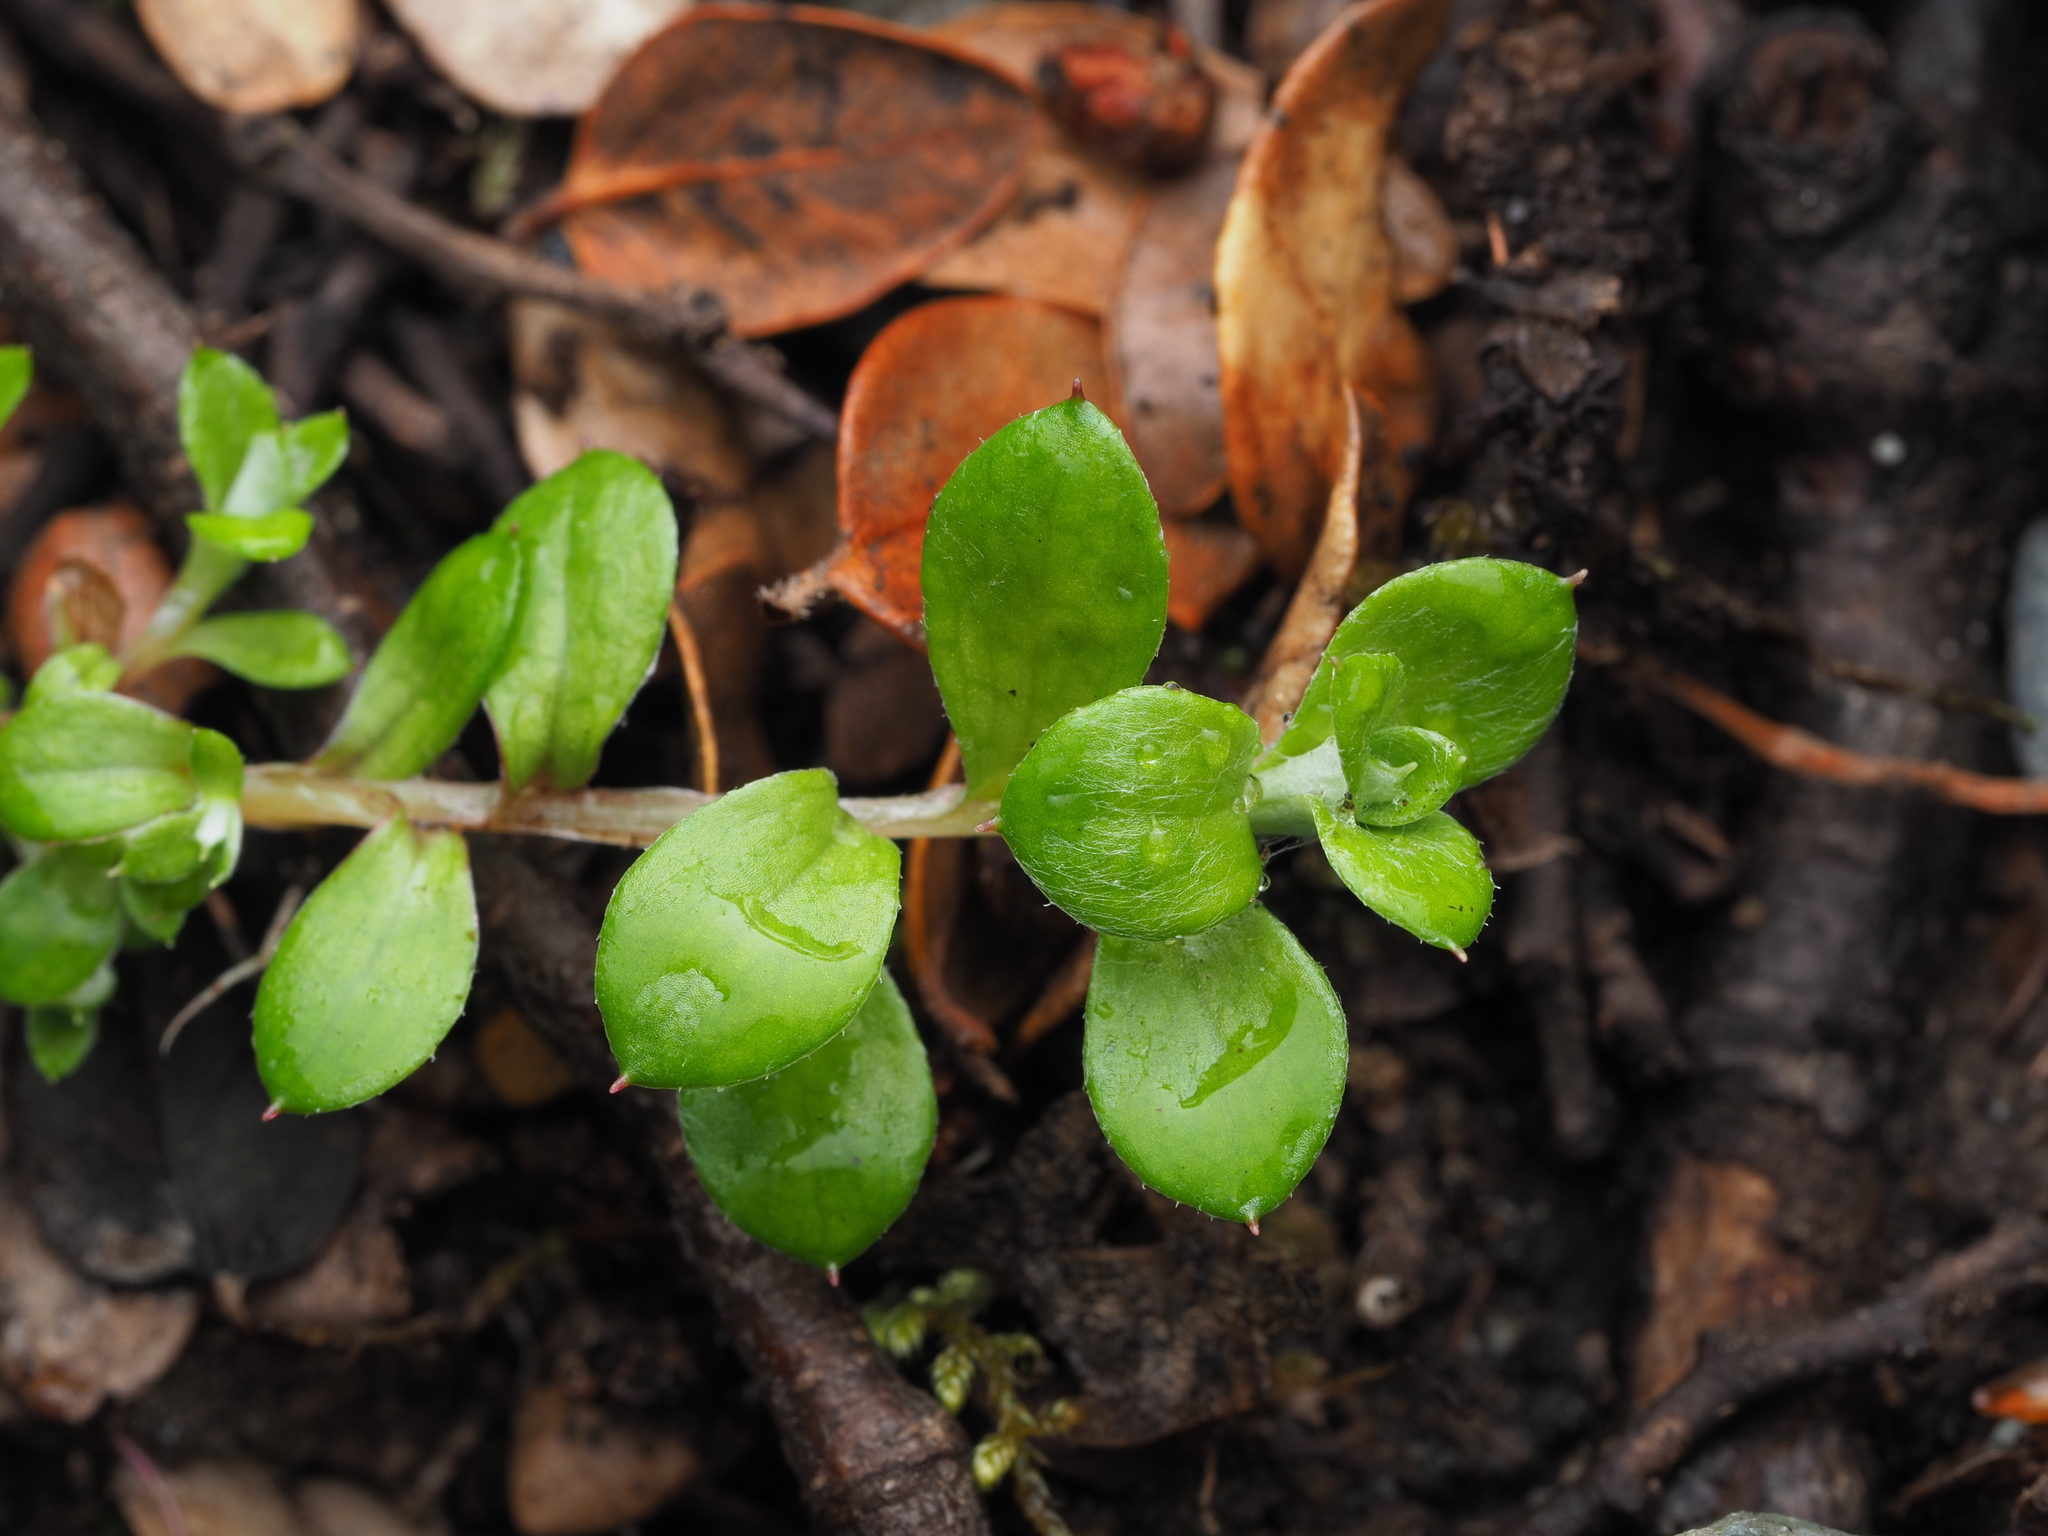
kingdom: Plantae
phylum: Tracheophyta
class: Magnoliopsida
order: Asterales
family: Asteraceae
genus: Anaphalioides
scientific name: Anaphalioides bellidioides
